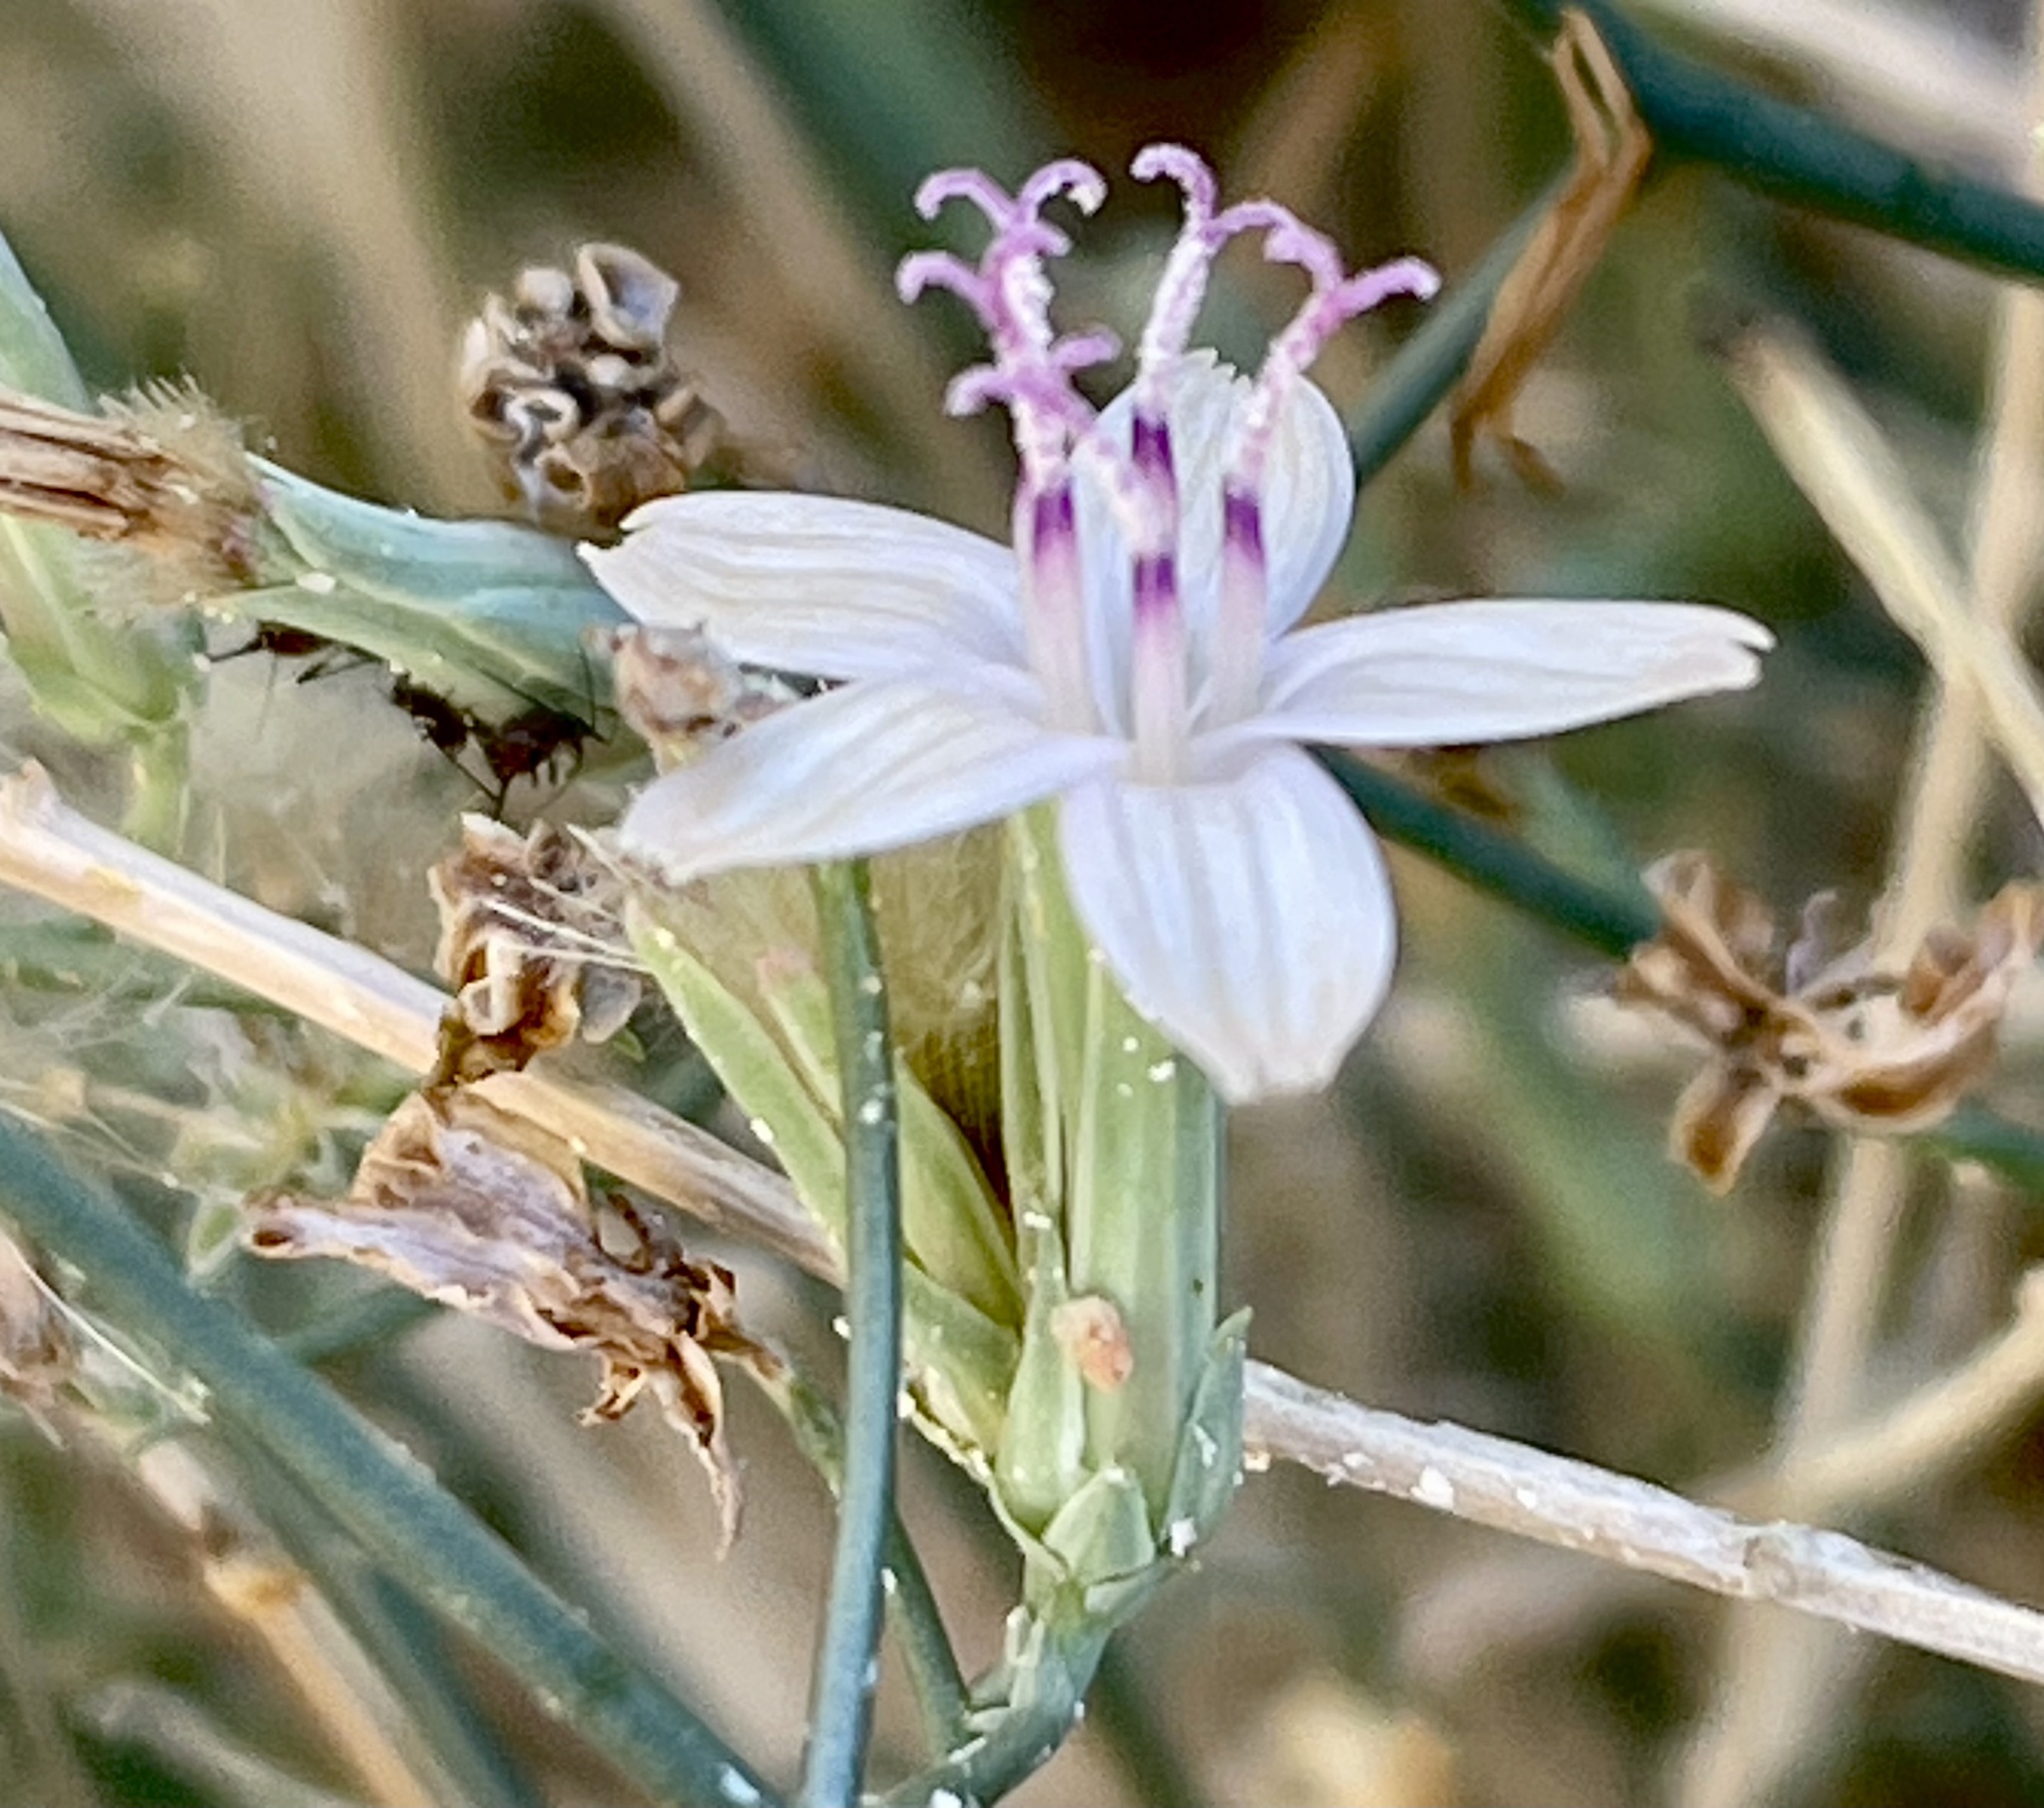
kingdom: Plantae
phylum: Tracheophyta
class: Magnoliopsida
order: Asterales
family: Asteraceae
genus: Stephanomeria
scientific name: Stephanomeria pauciflora
